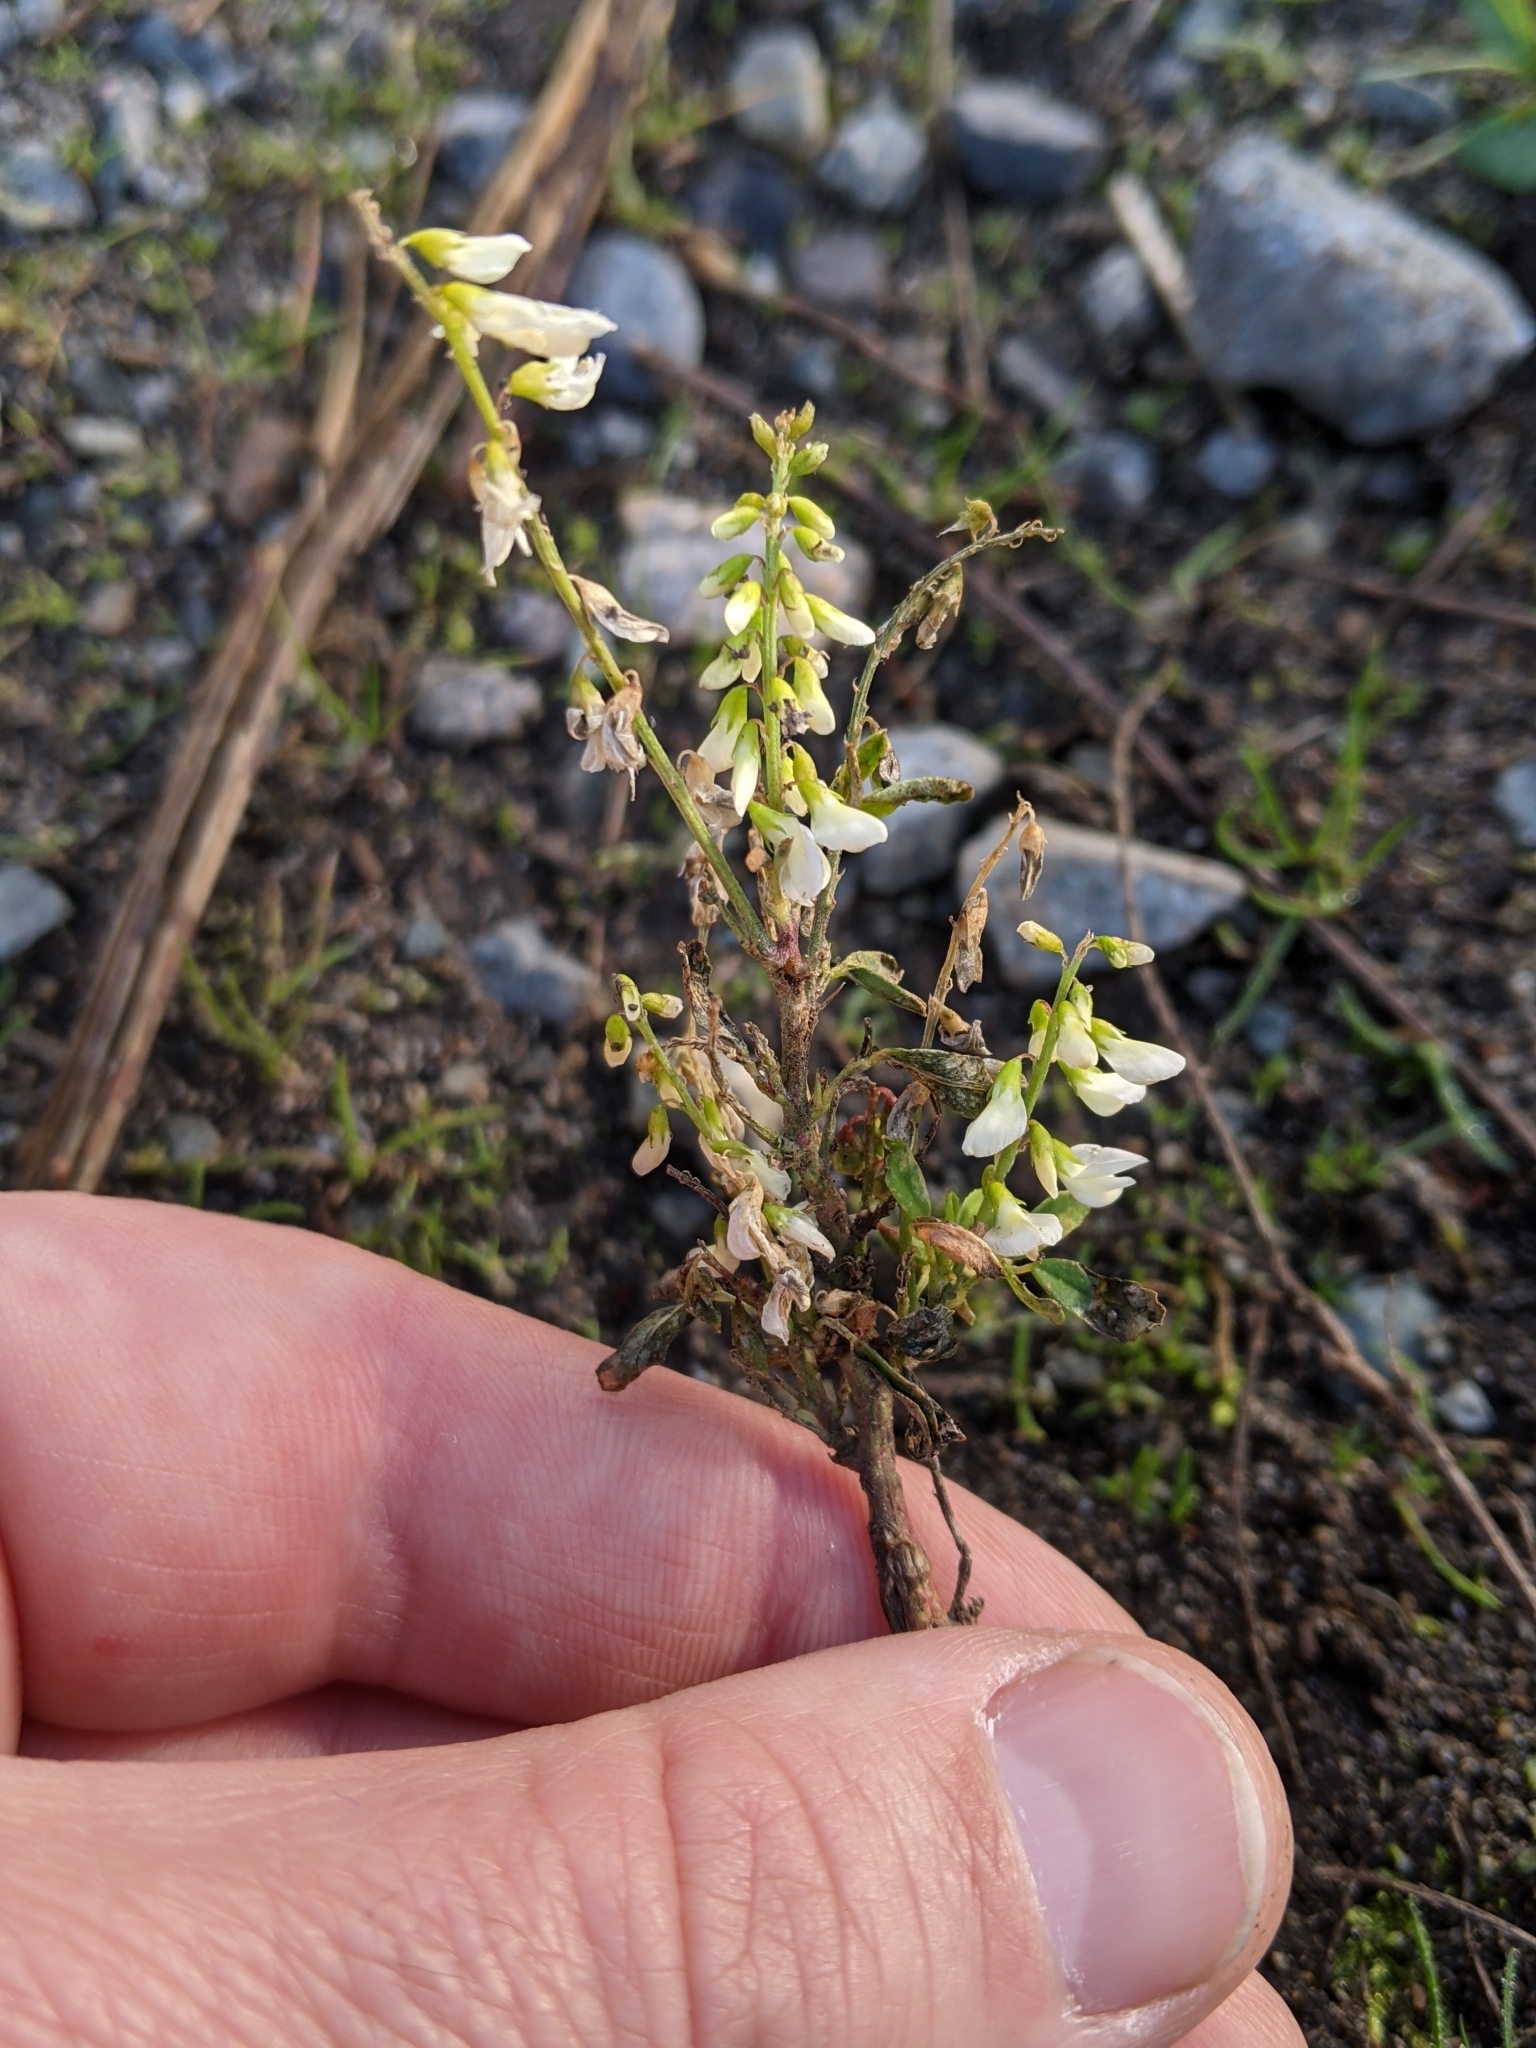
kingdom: Plantae
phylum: Tracheophyta
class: Magnoliopsida
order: Fabales
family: Fabaceae
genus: Melilotus
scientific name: Melilotus albus
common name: White melilot
